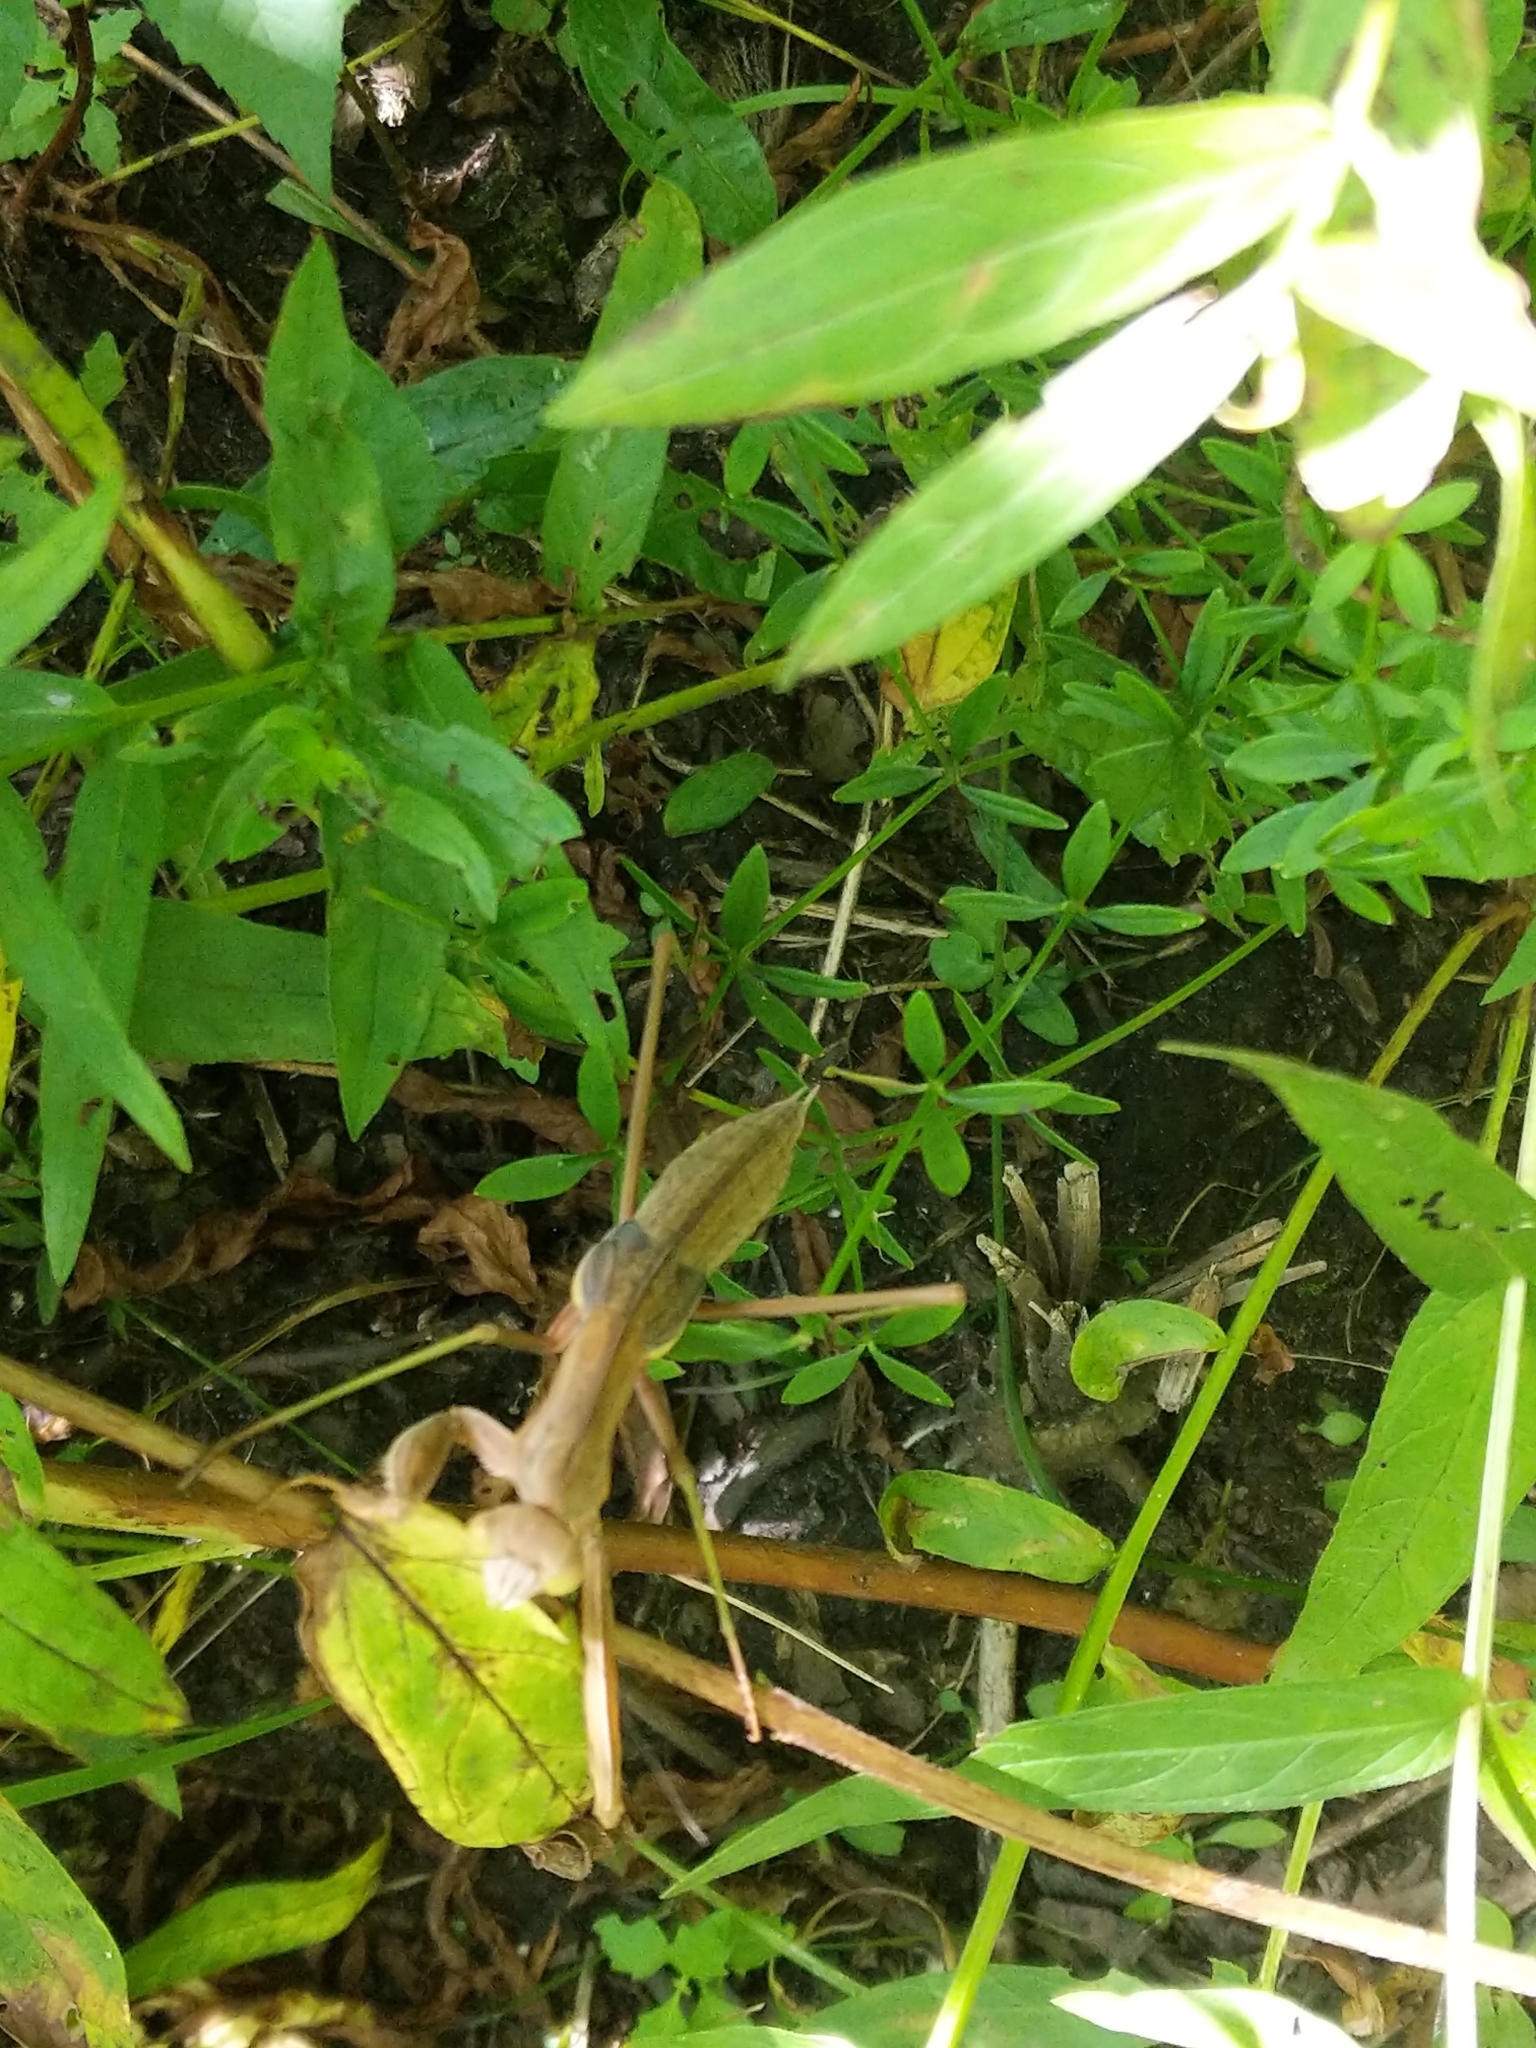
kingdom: Animalia
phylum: Arthropoda
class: Insecta
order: Mantodea
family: Mantidae
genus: Tenodera
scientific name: Tenodera sinensis
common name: Chinese mantis
